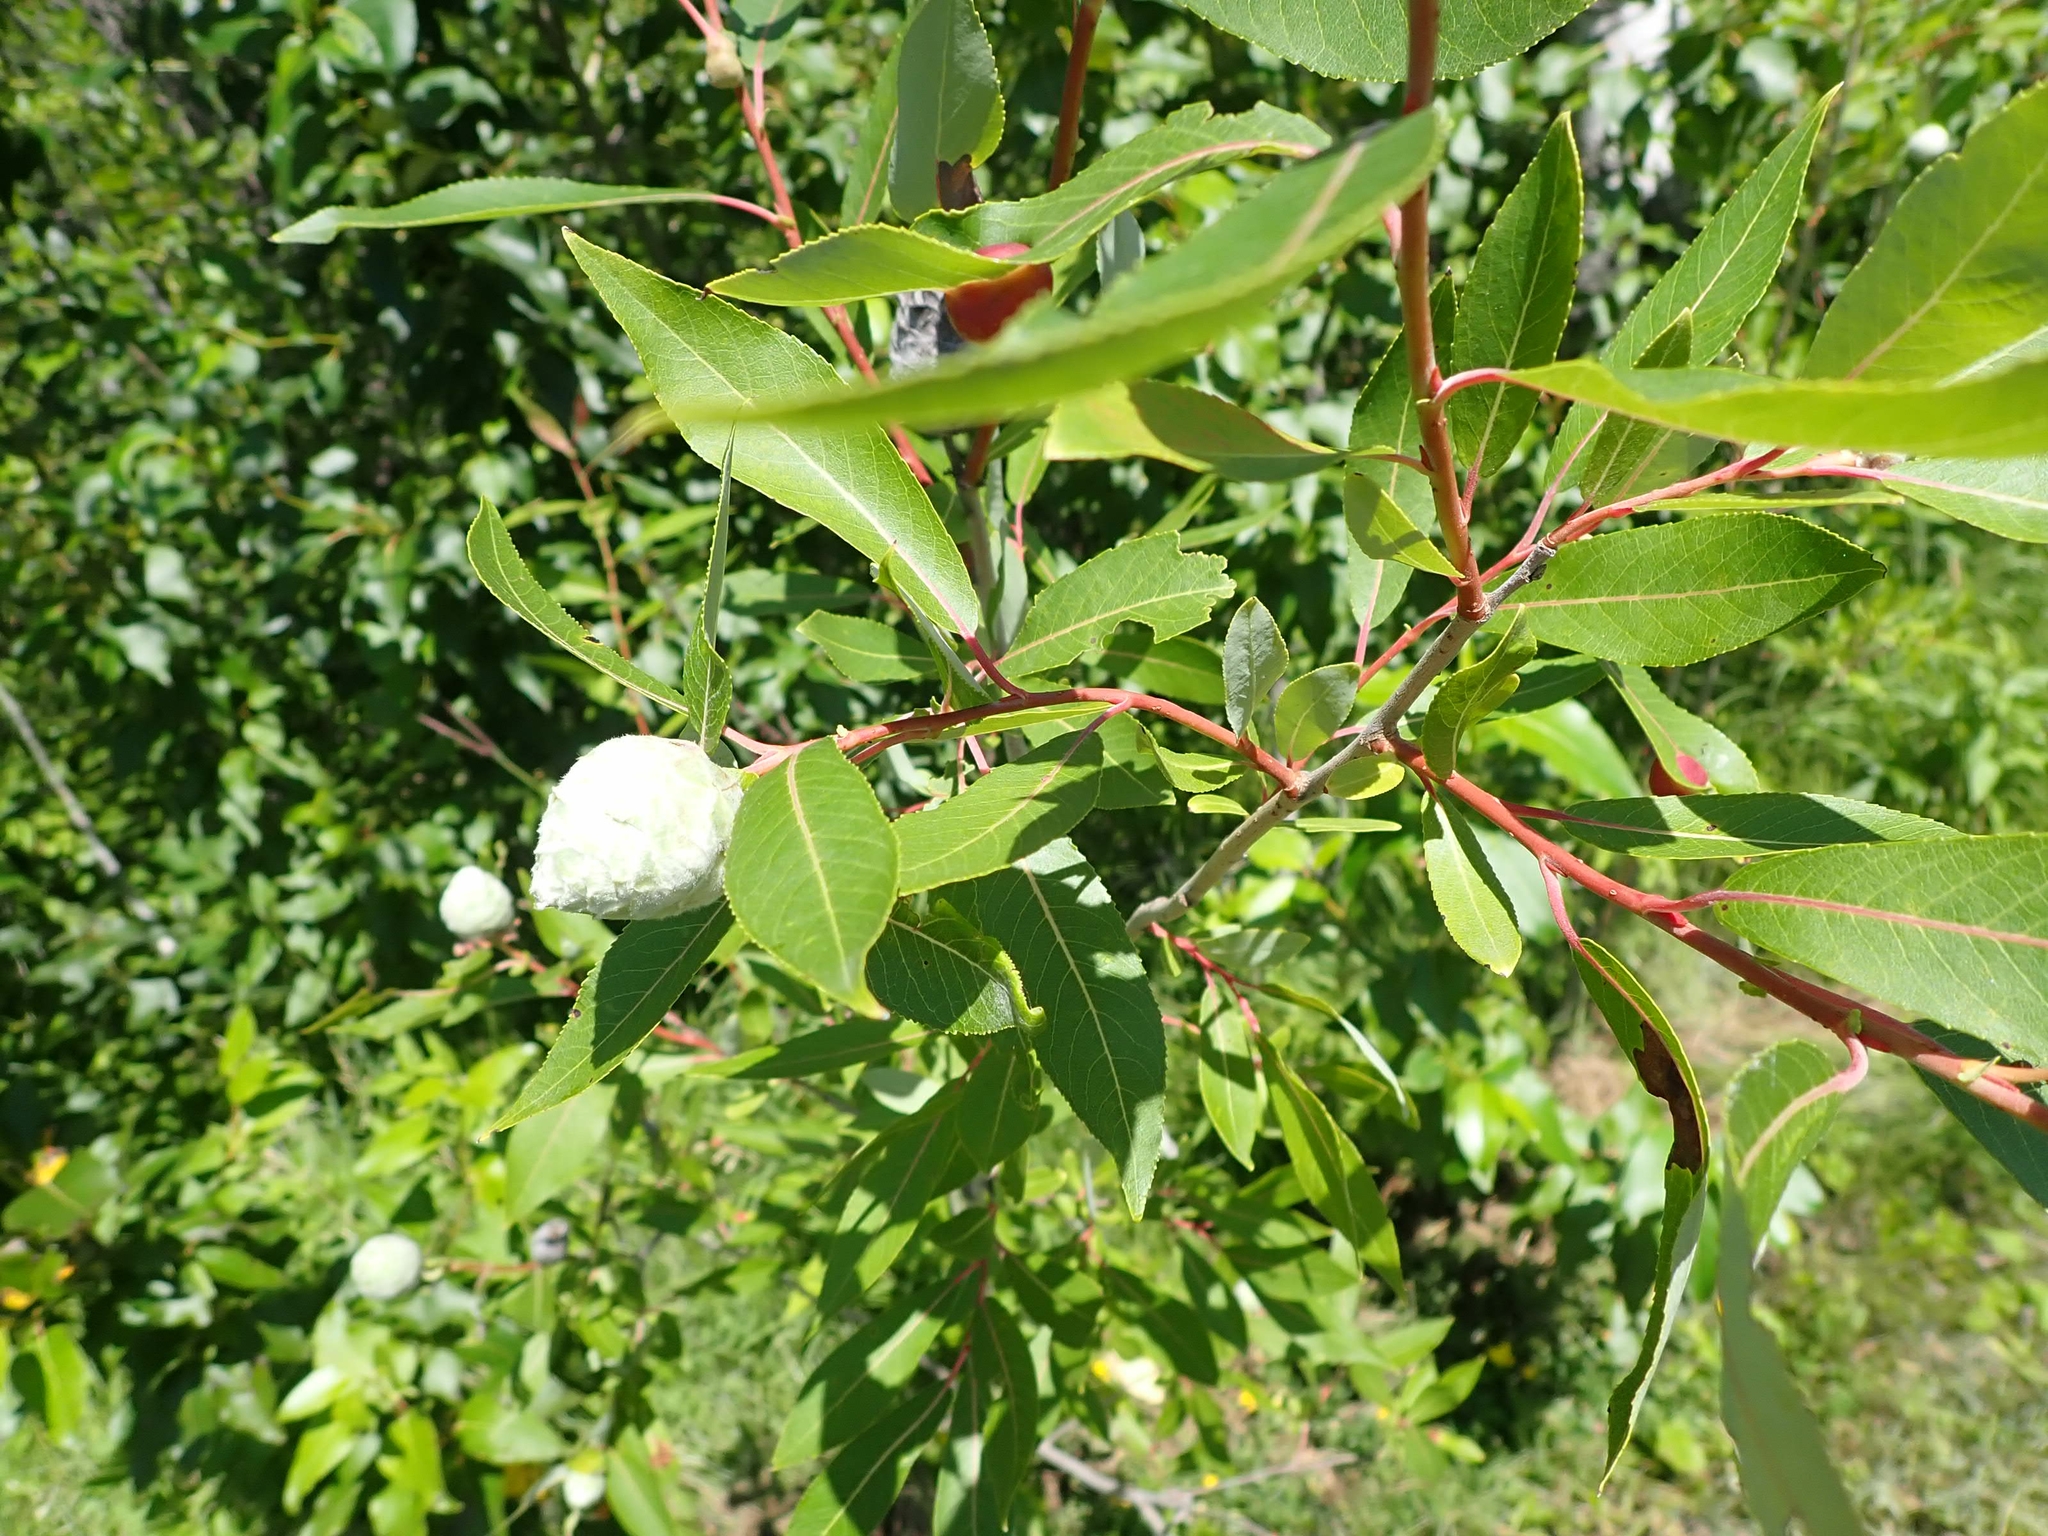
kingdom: Animalia
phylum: Arthropoda
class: Insecta
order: Diptera
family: Cecidomyiidae
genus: Rabdophaga
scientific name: Rabdophaga strobiloides
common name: Willow pinecone gall midge
